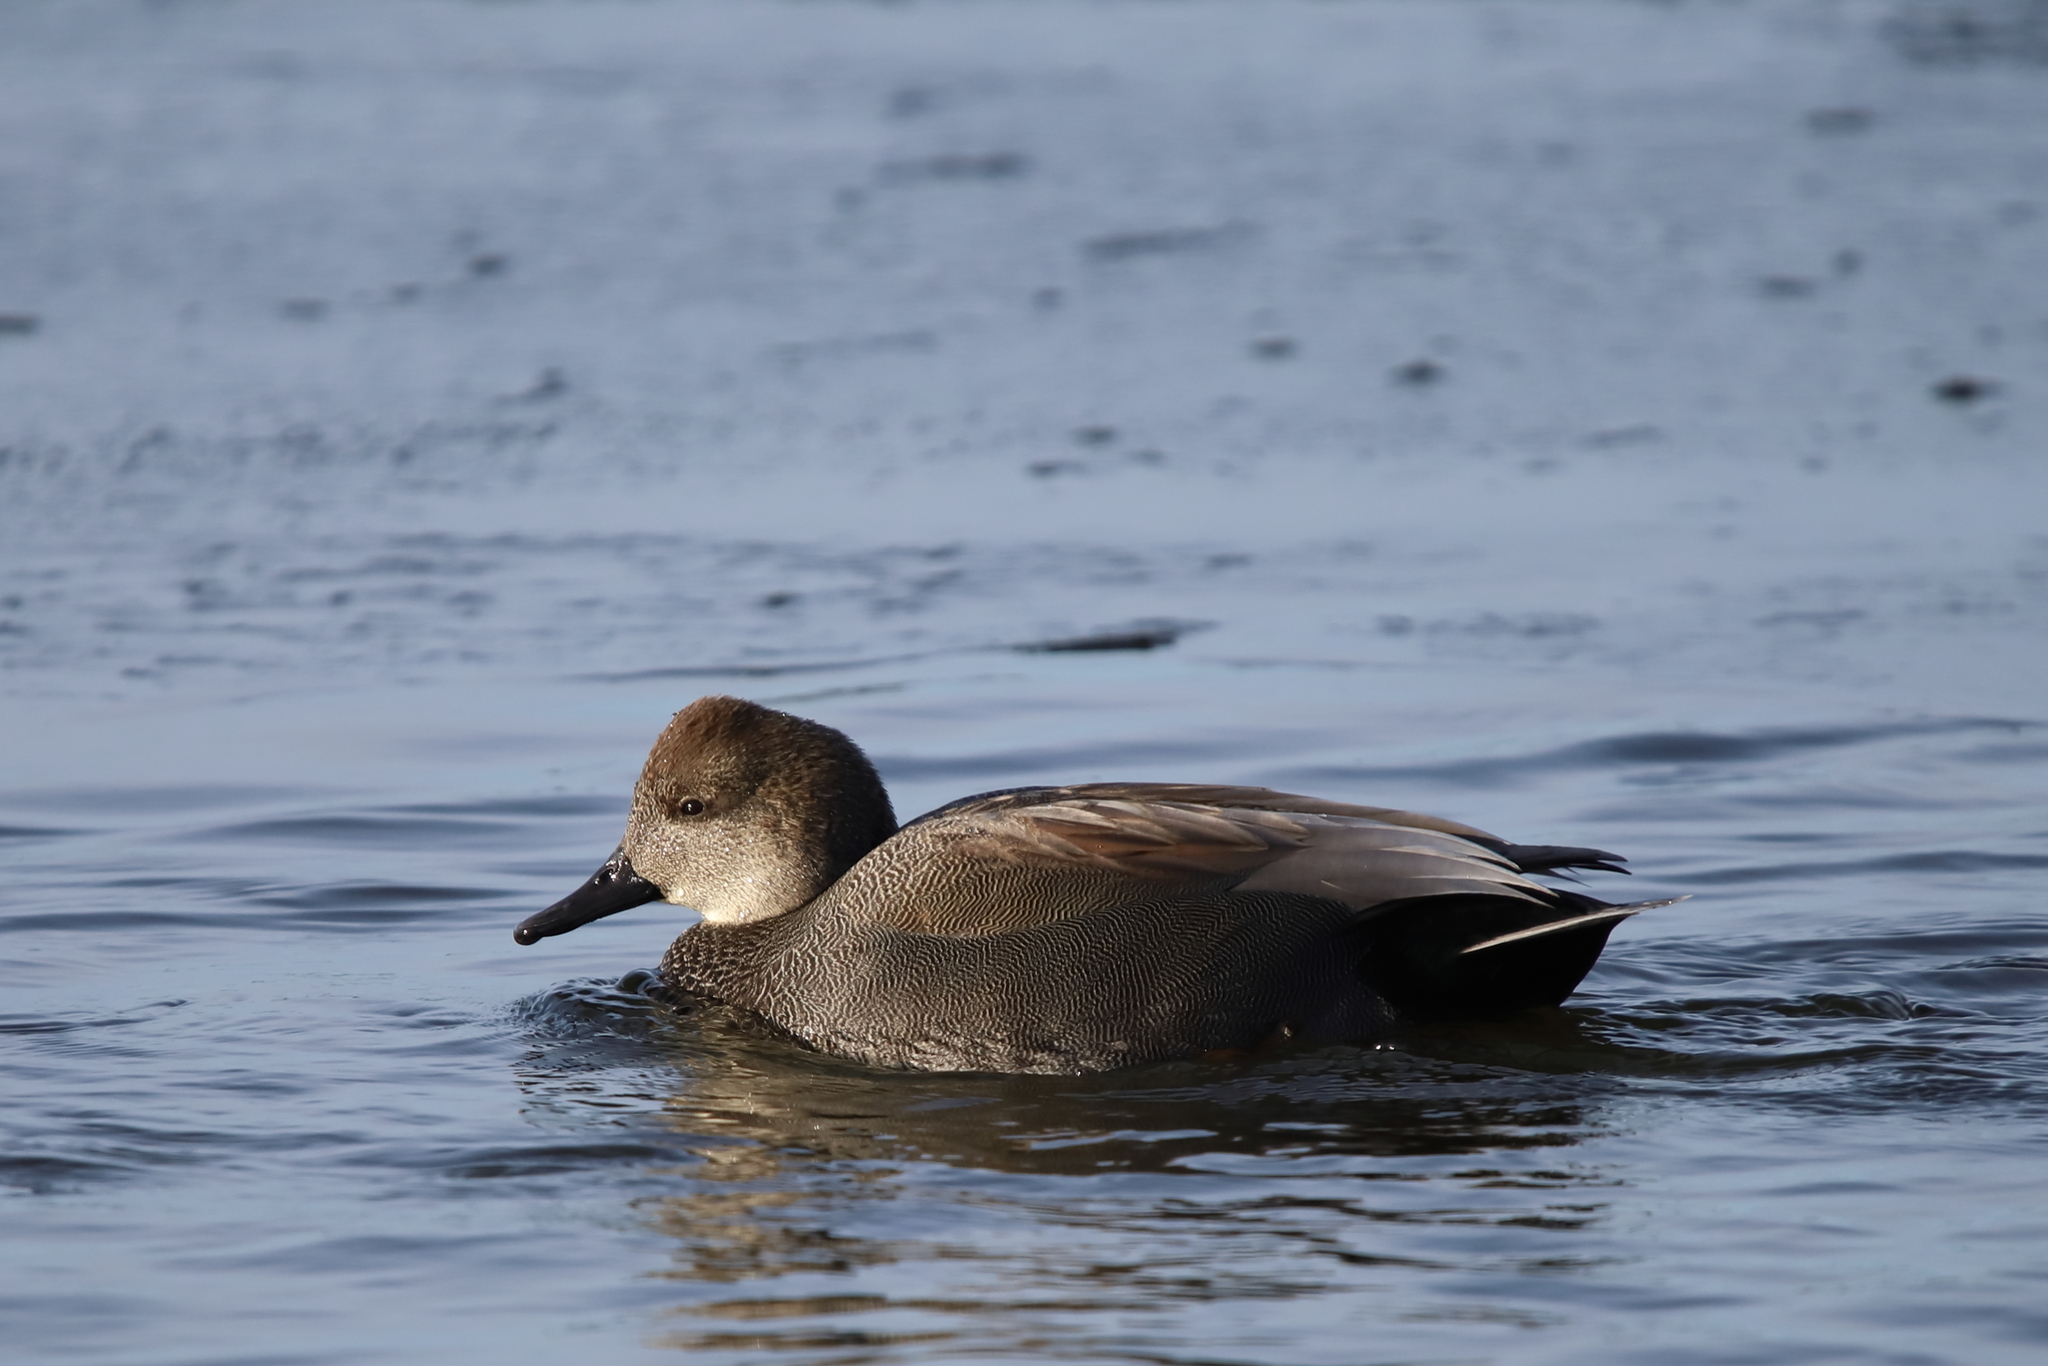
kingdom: Animalia
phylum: Chordata
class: Aves
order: Anseriformes
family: Anatidae
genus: Mareca
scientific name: Mareca strepera
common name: Gadwall
